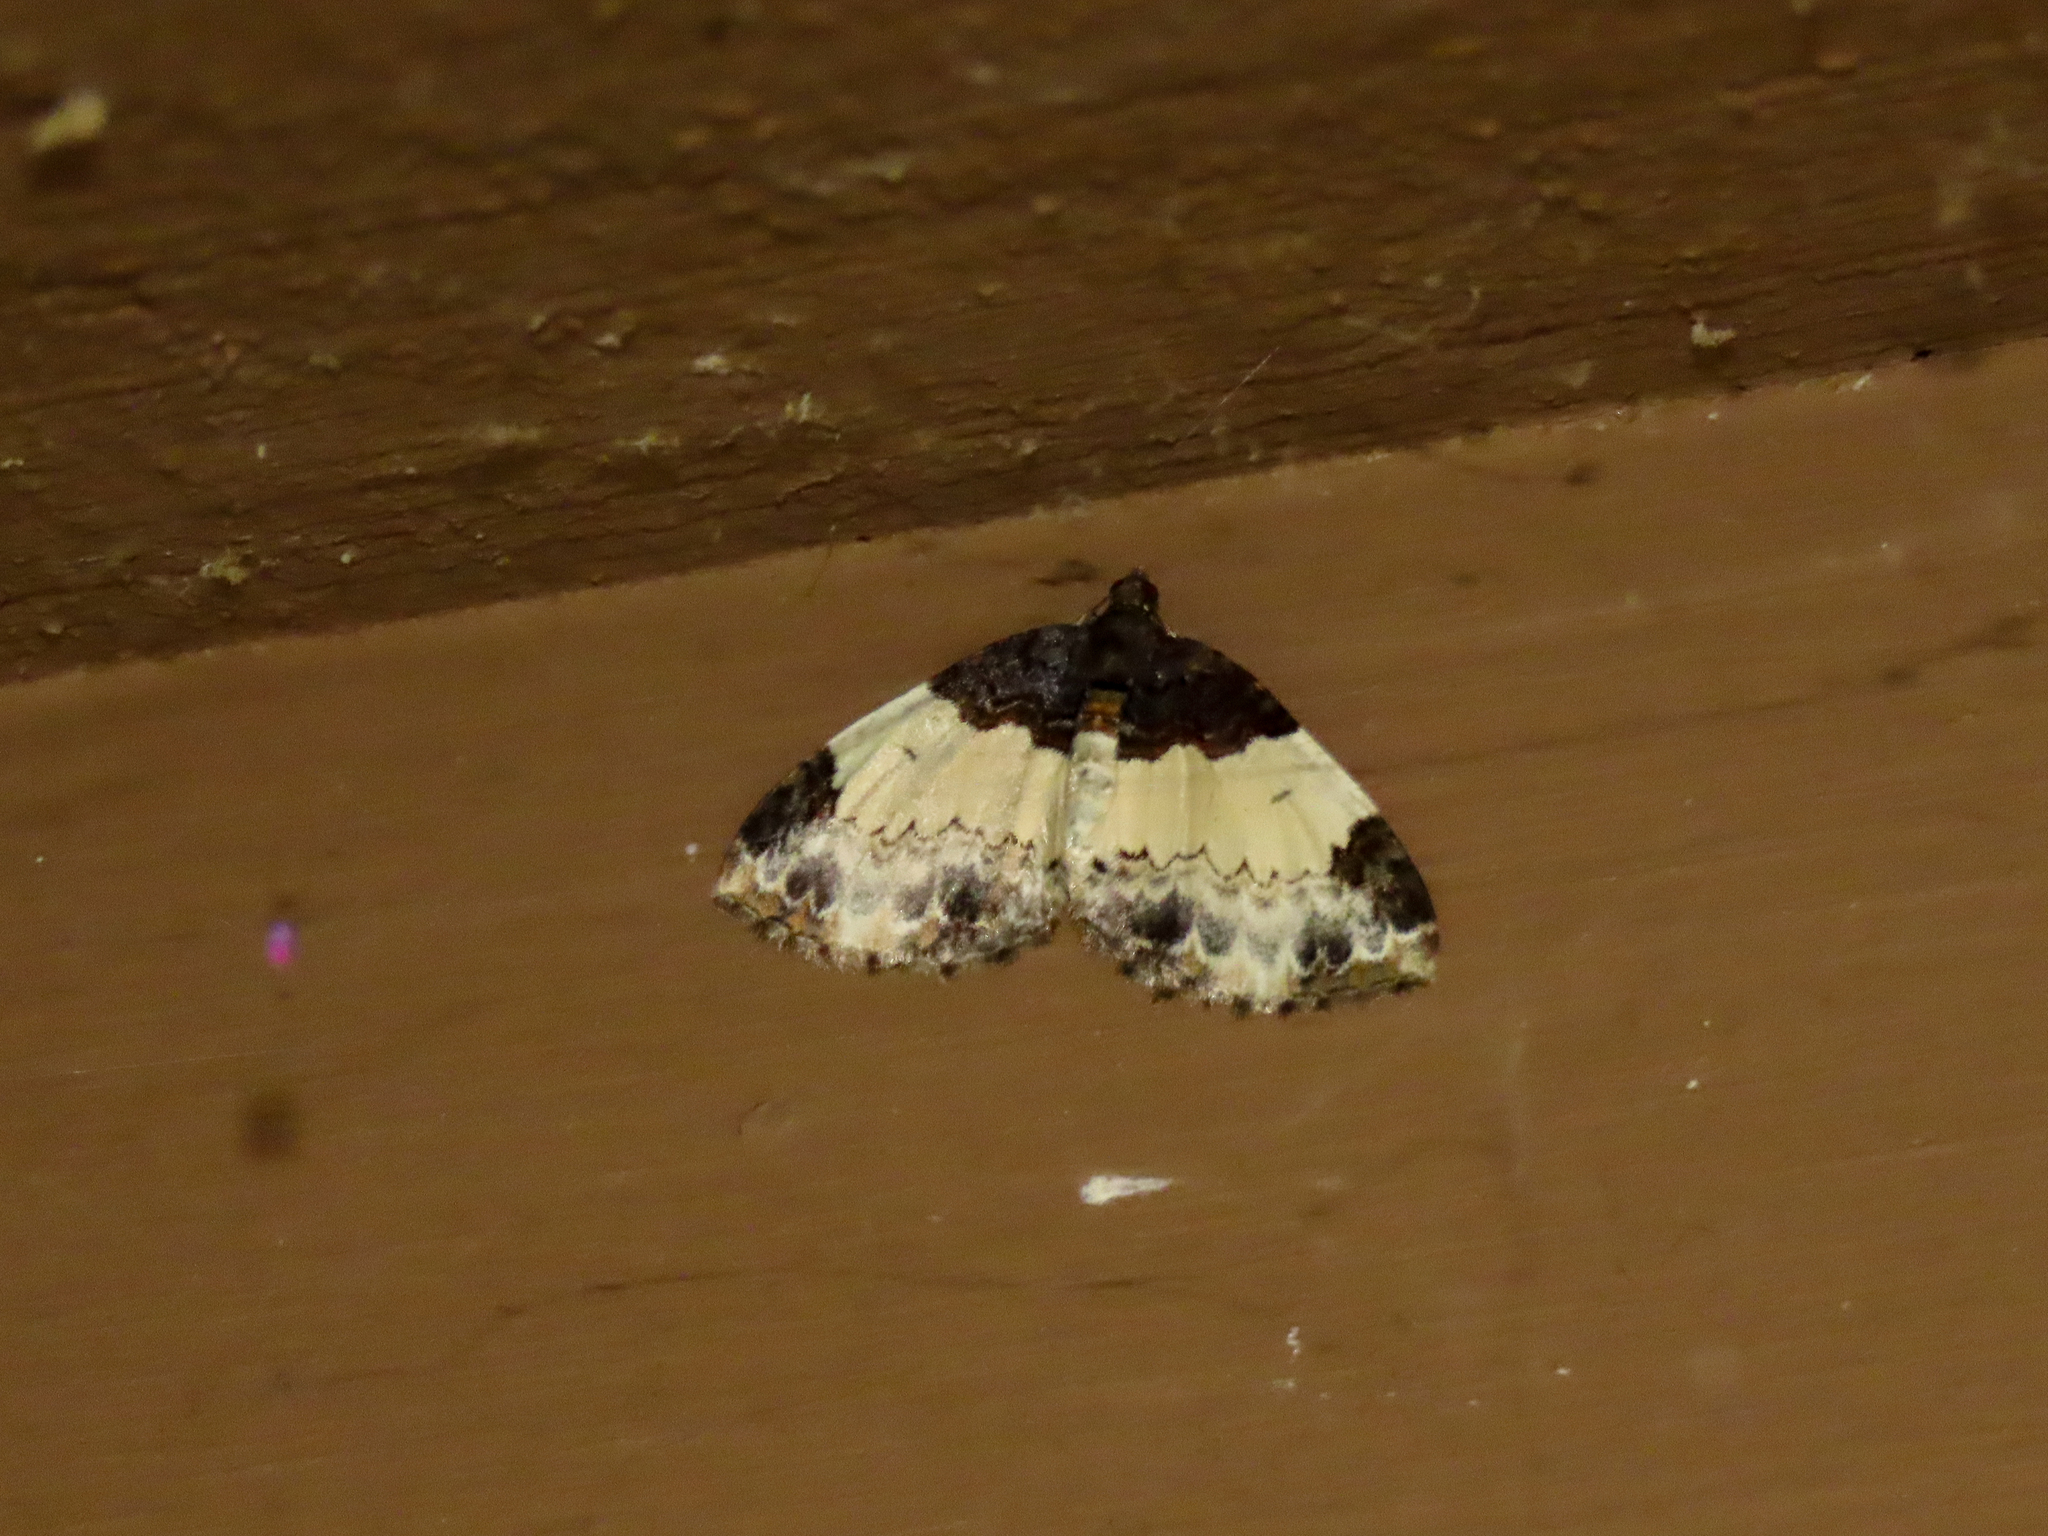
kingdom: Animalia
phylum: Arthropoda
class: Insecta
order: Lepidoptera
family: Geometridae
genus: Mesoleuca
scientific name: Mesoleuca ruficillata
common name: White-ribboned carpet moth
